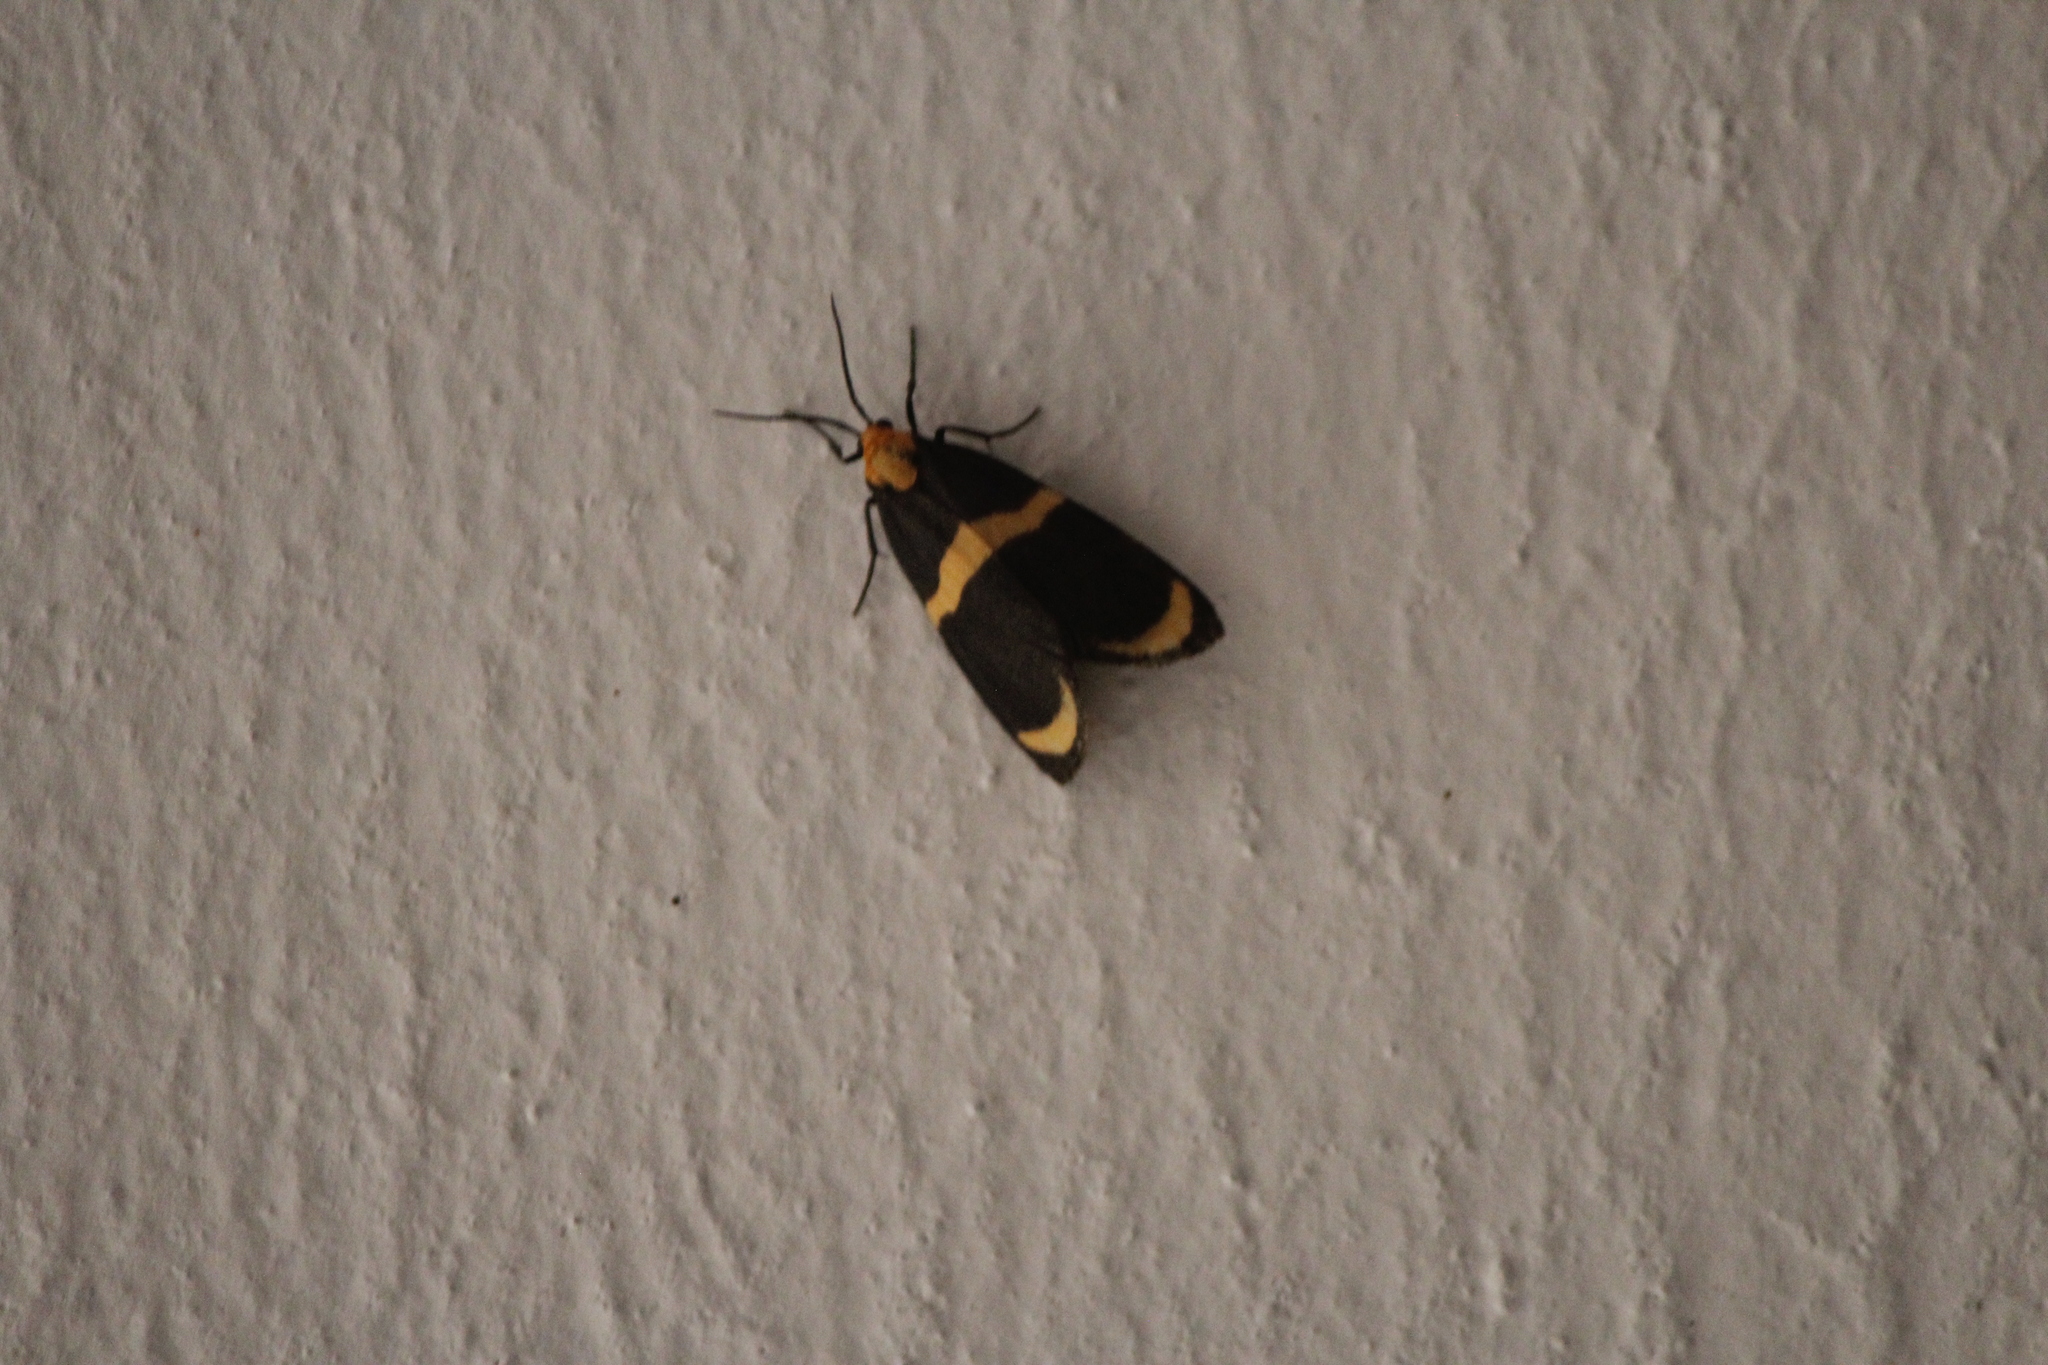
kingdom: Animalia
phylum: Arthropoda
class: Insecta
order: Lepidoptera
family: Erebidae
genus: Eudesmia
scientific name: Eudesmia arida
